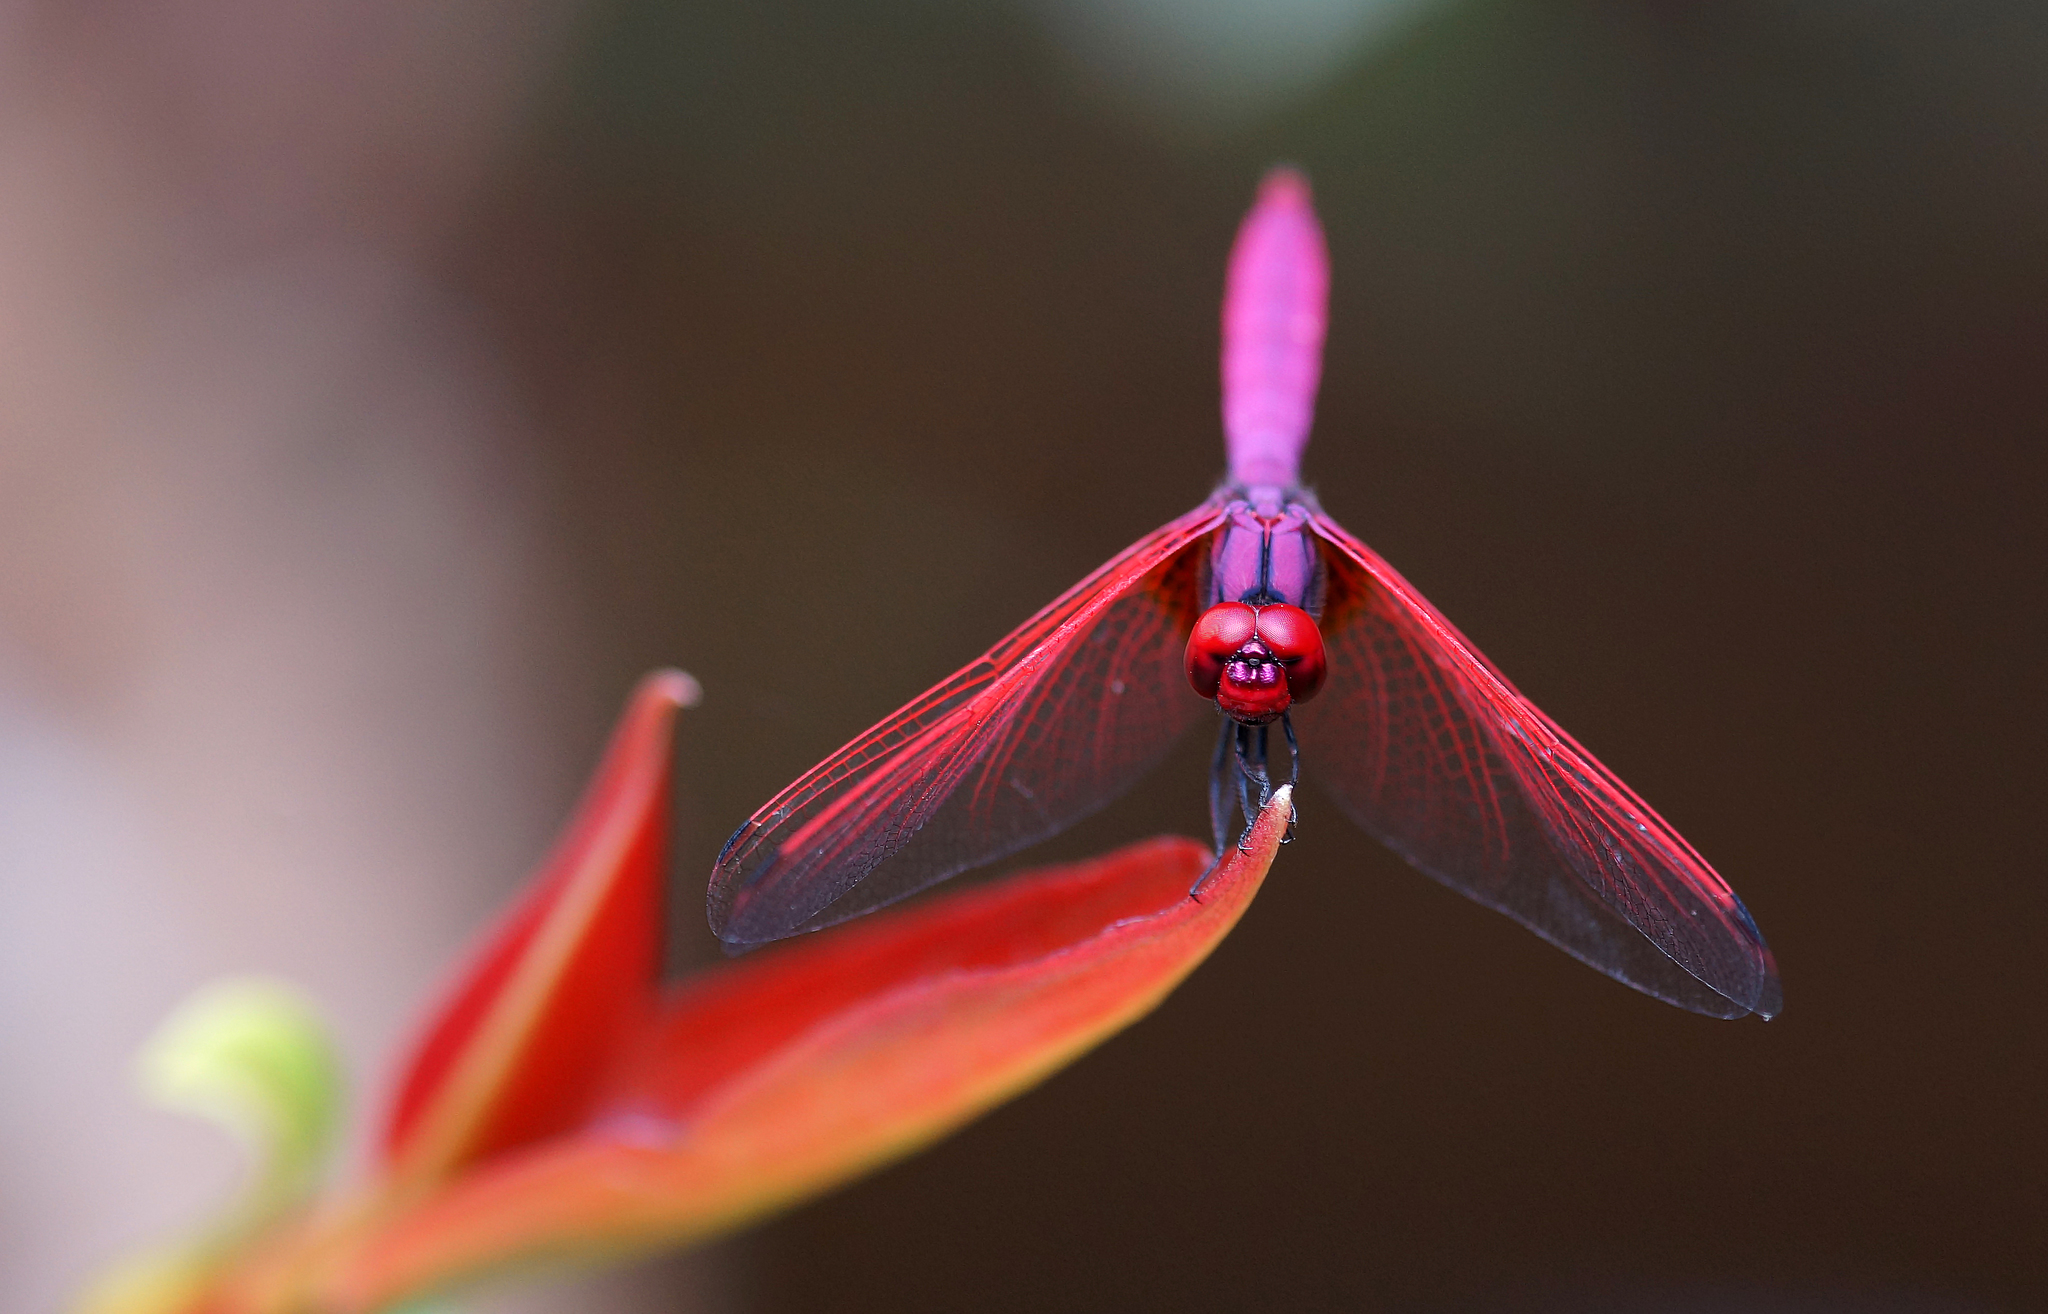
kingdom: Animalia
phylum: Arthropoda
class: Insecta
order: Odonata
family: Libellulidae
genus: Trithemis
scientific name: Trithemis aurora
